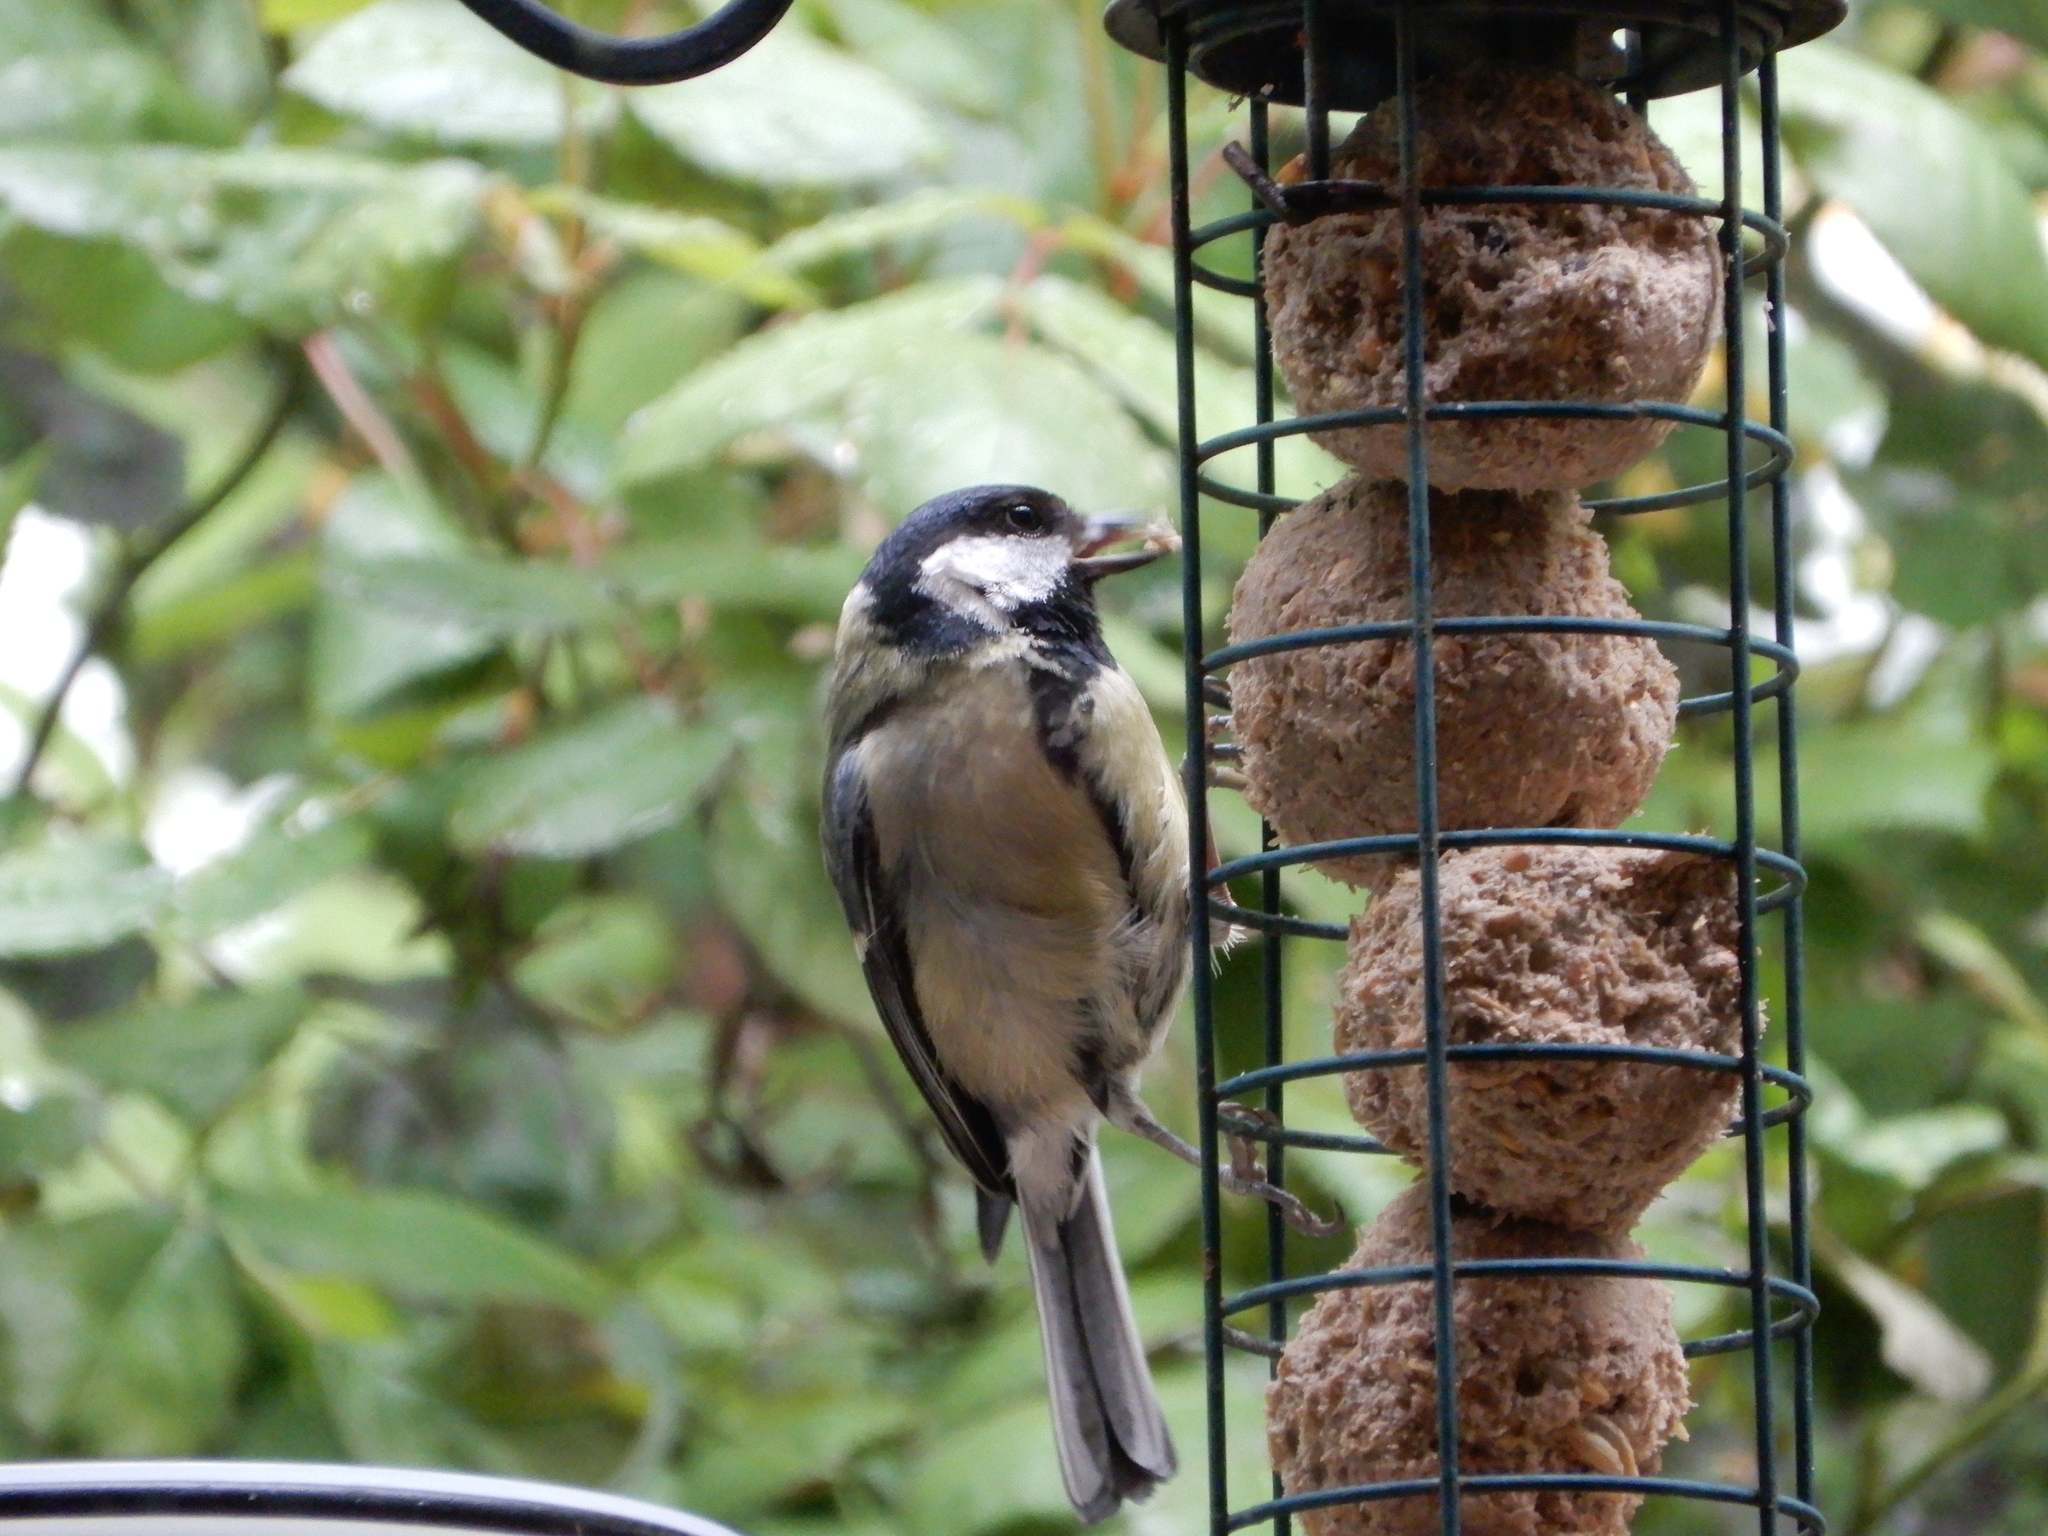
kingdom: Animalia
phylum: Chordata
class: Aves
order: Passeriformes
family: Paridae
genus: Parus
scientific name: Parus major
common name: Great tit
